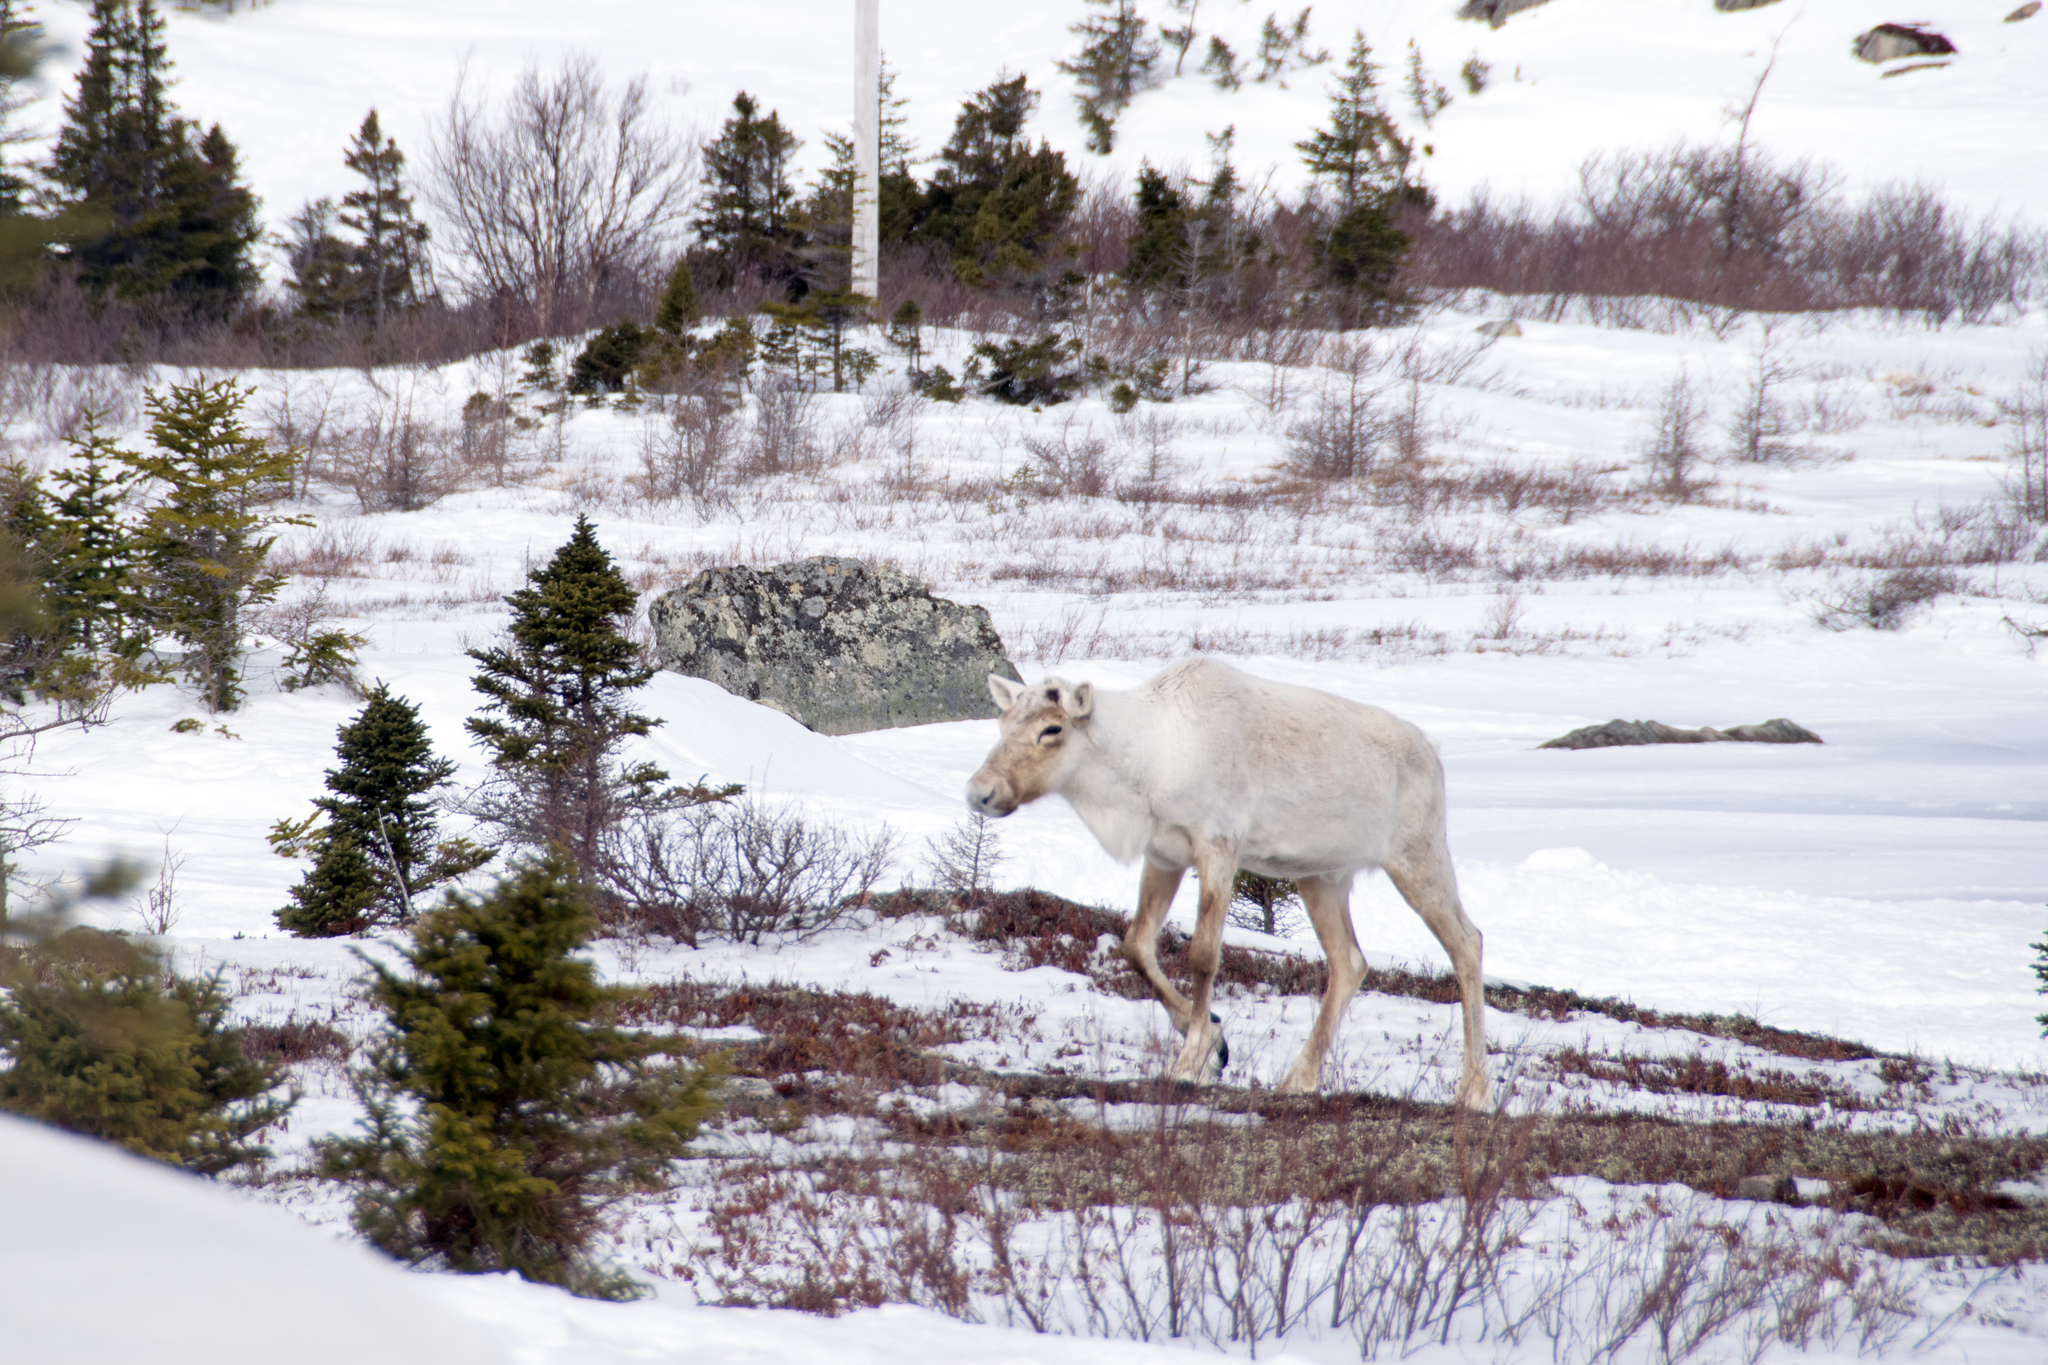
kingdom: Animalia
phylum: Chordata
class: Mammalia
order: Artiodactyla
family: Cervidae
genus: Rangifer
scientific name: Rangifer tarandus
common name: Reindeer
